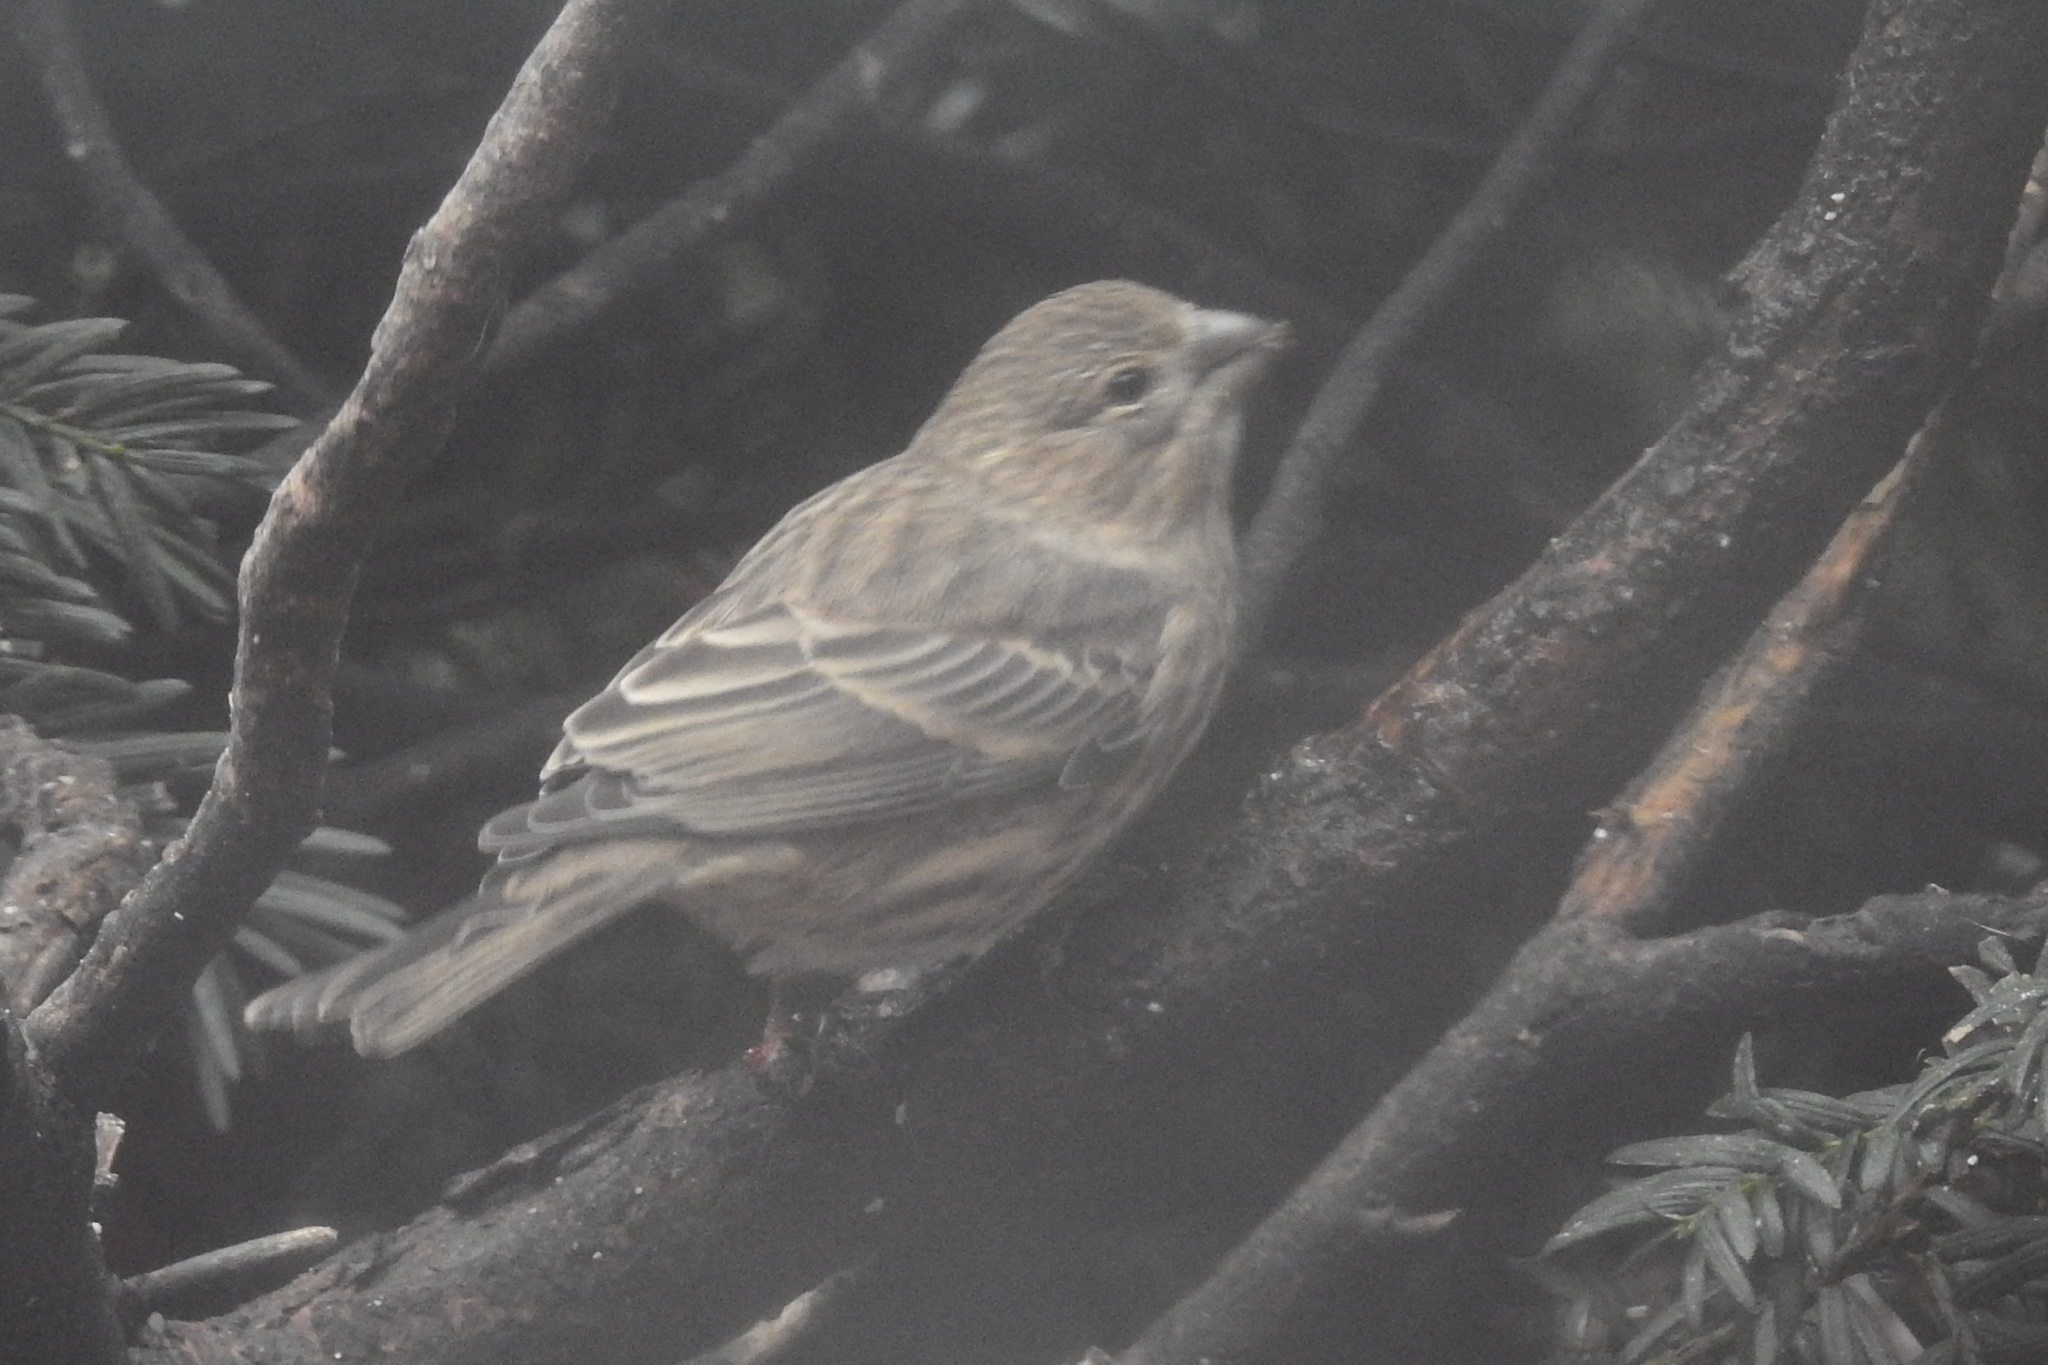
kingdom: Animalia
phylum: Chordata
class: Aves
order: Passeriformes
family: Fringillidae
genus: Haemorhous
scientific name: Haemorhous mexicanus
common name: House finch
